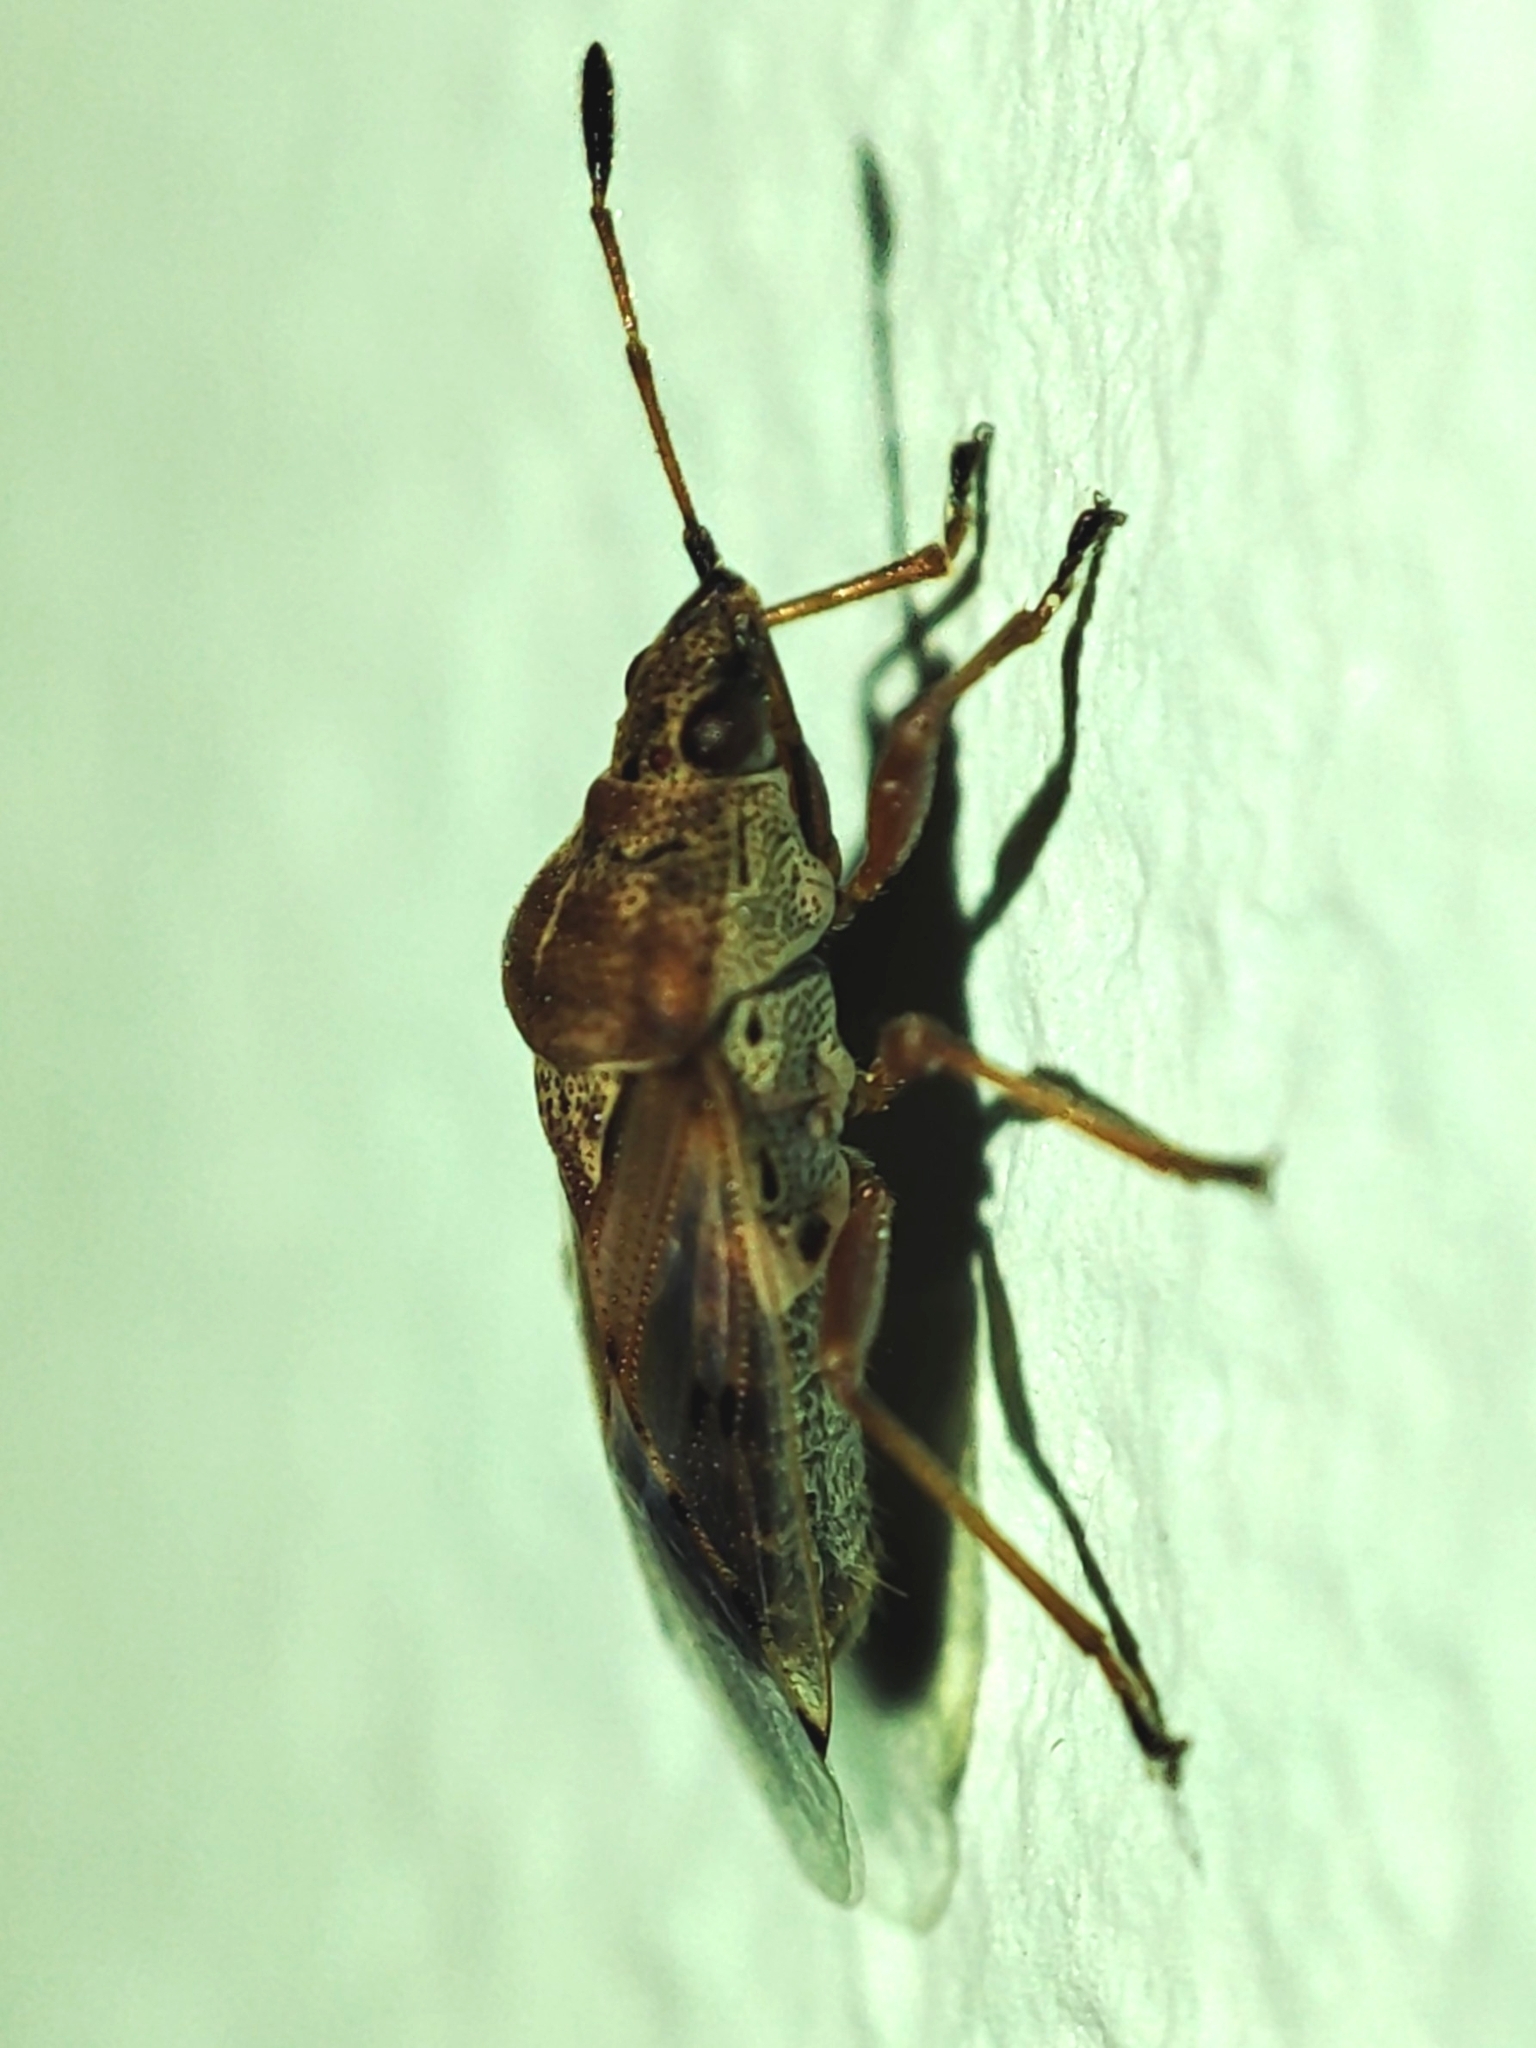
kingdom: Animalia
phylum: Arthropoda
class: Insecta
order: Hemiptera
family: Lygaeidae
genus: Kleidocerys
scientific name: Kleidocerys resedae
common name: Birch catkin bug
